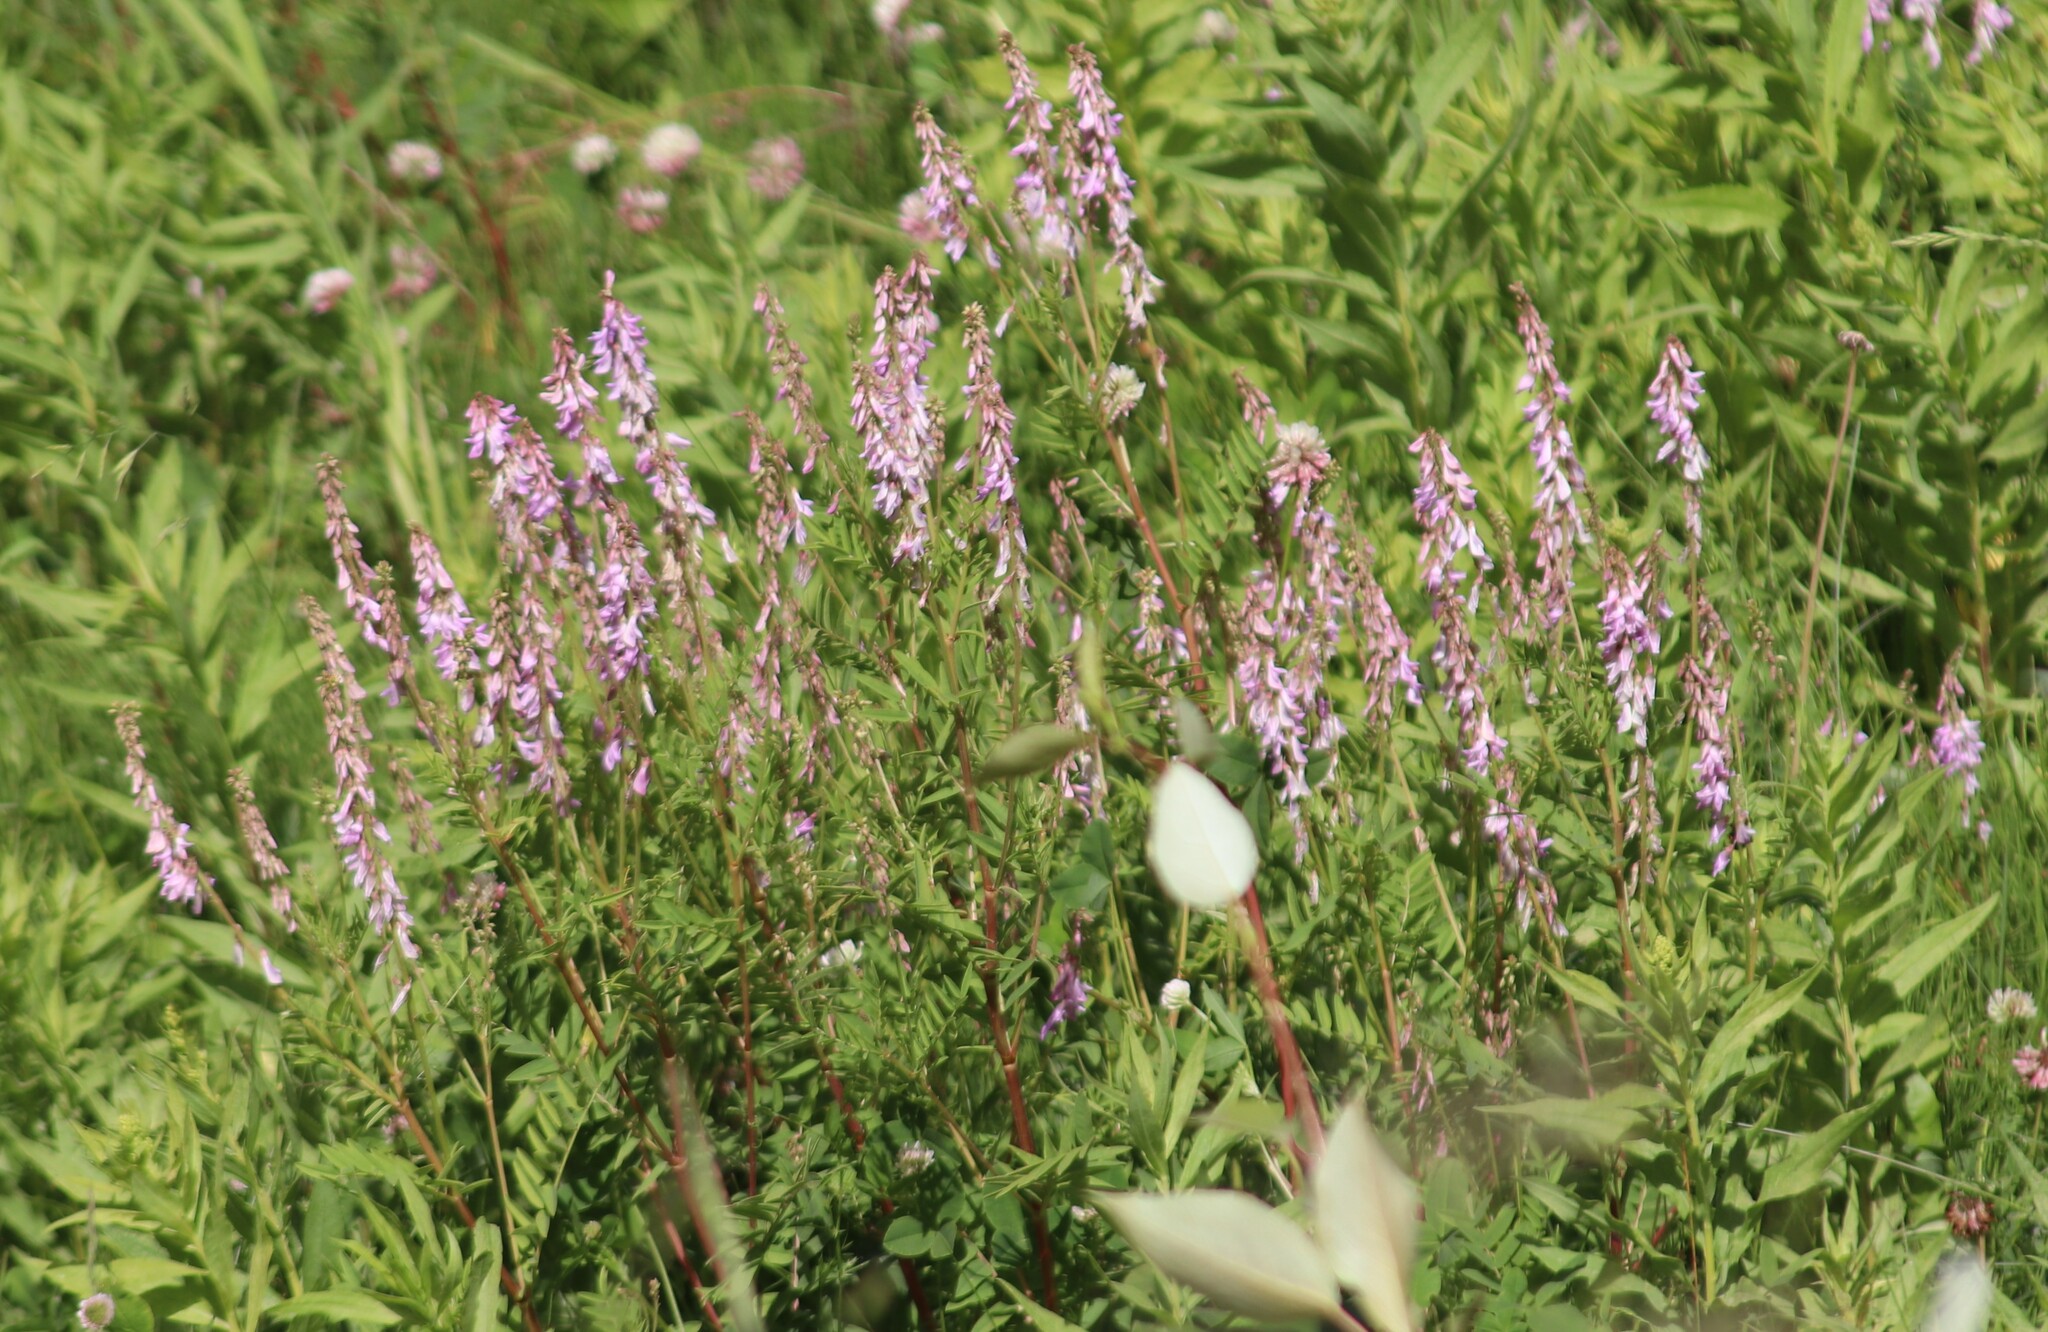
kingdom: Plantae
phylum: Tracheophyta
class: Magnoliopsida
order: Fabales
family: Fabaceae
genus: Hedysarum
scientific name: Hedysarum alpinum
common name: Alpine sweet-vetch
